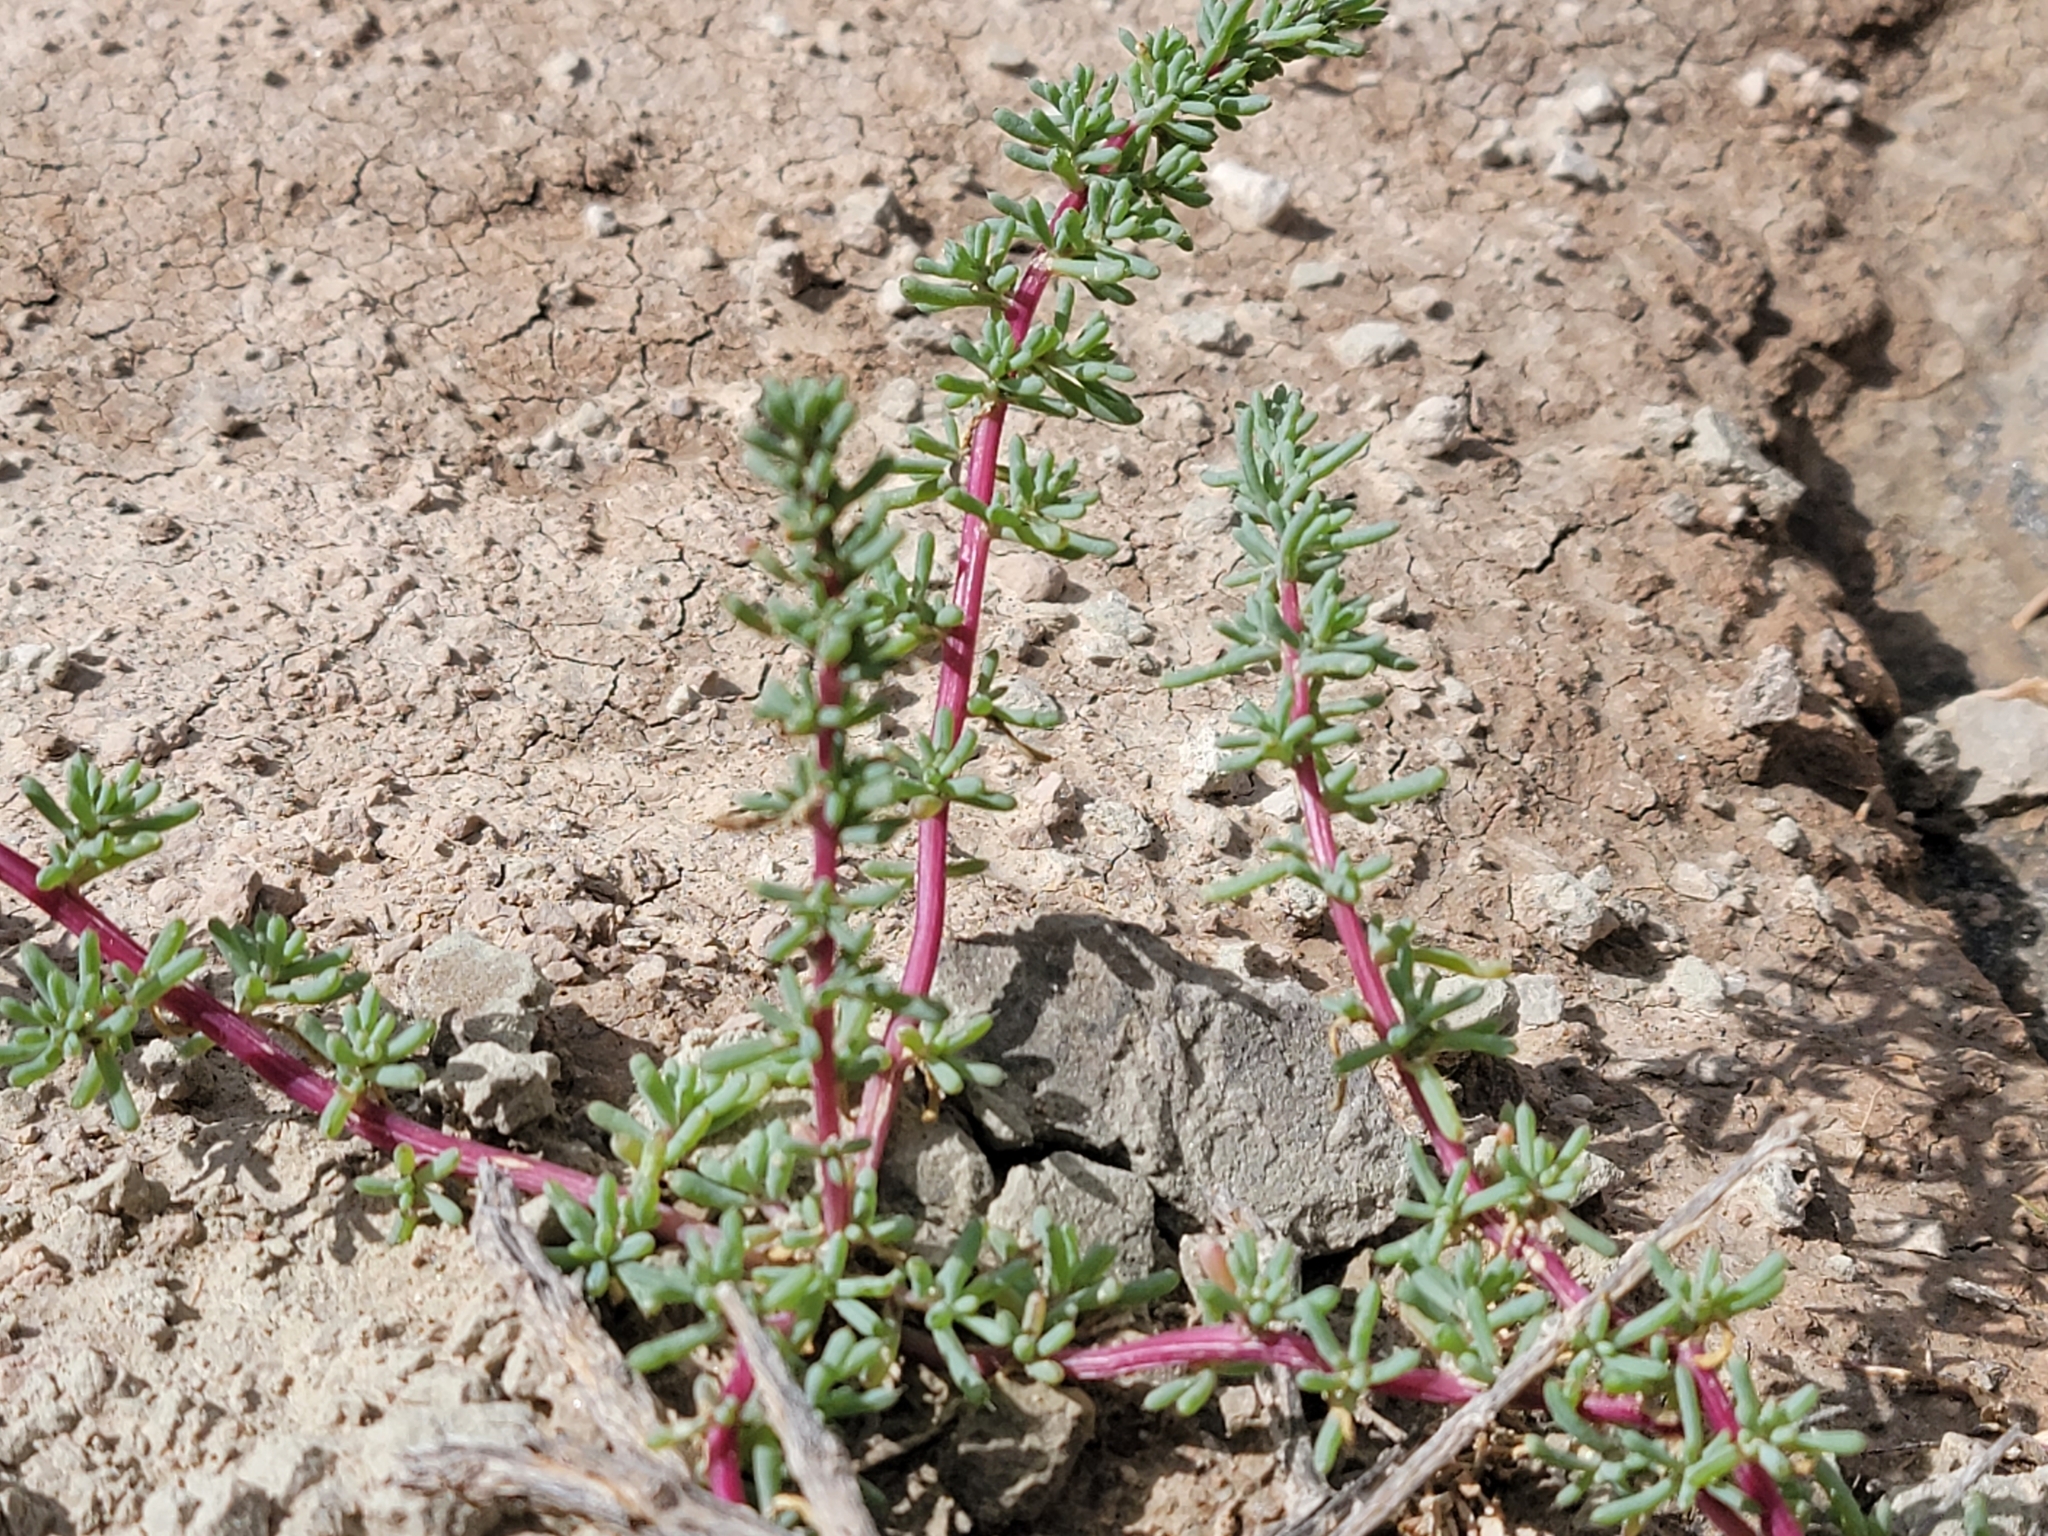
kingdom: Plantae
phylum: Tracheophyta
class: Magnoliopsida
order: Caryophyllales
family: Amaranthaceae
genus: Halogeton
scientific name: Halogeton glomeratus
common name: Saltlover
